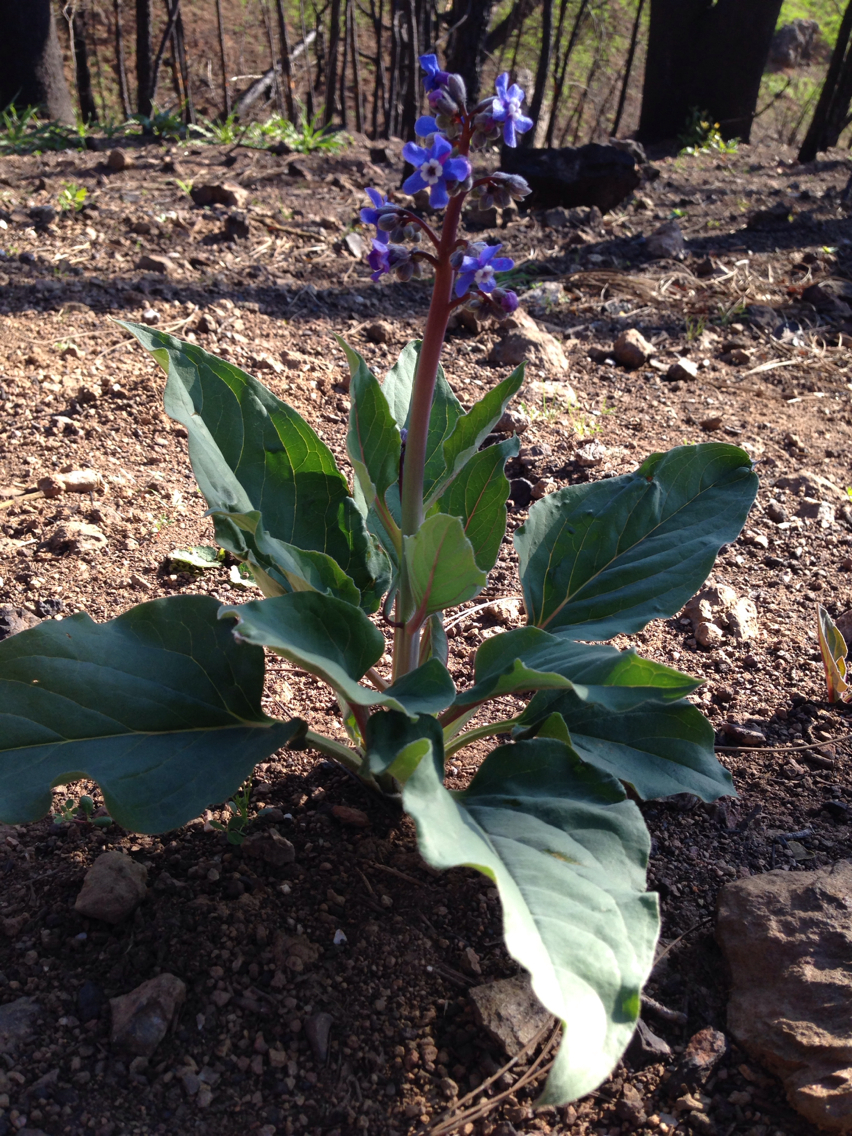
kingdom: Plantae
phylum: Tracheophyta
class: Magnoliopsida
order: Boraginales
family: Boraginaceae
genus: Adelinia
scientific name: Adelinia grande
